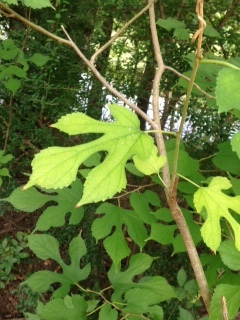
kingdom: Plantae
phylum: Tracheophyta
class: Magnoliopsida
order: Rosales
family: Moraceae
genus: Morus
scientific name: Morus rubra
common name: Red mulberry
